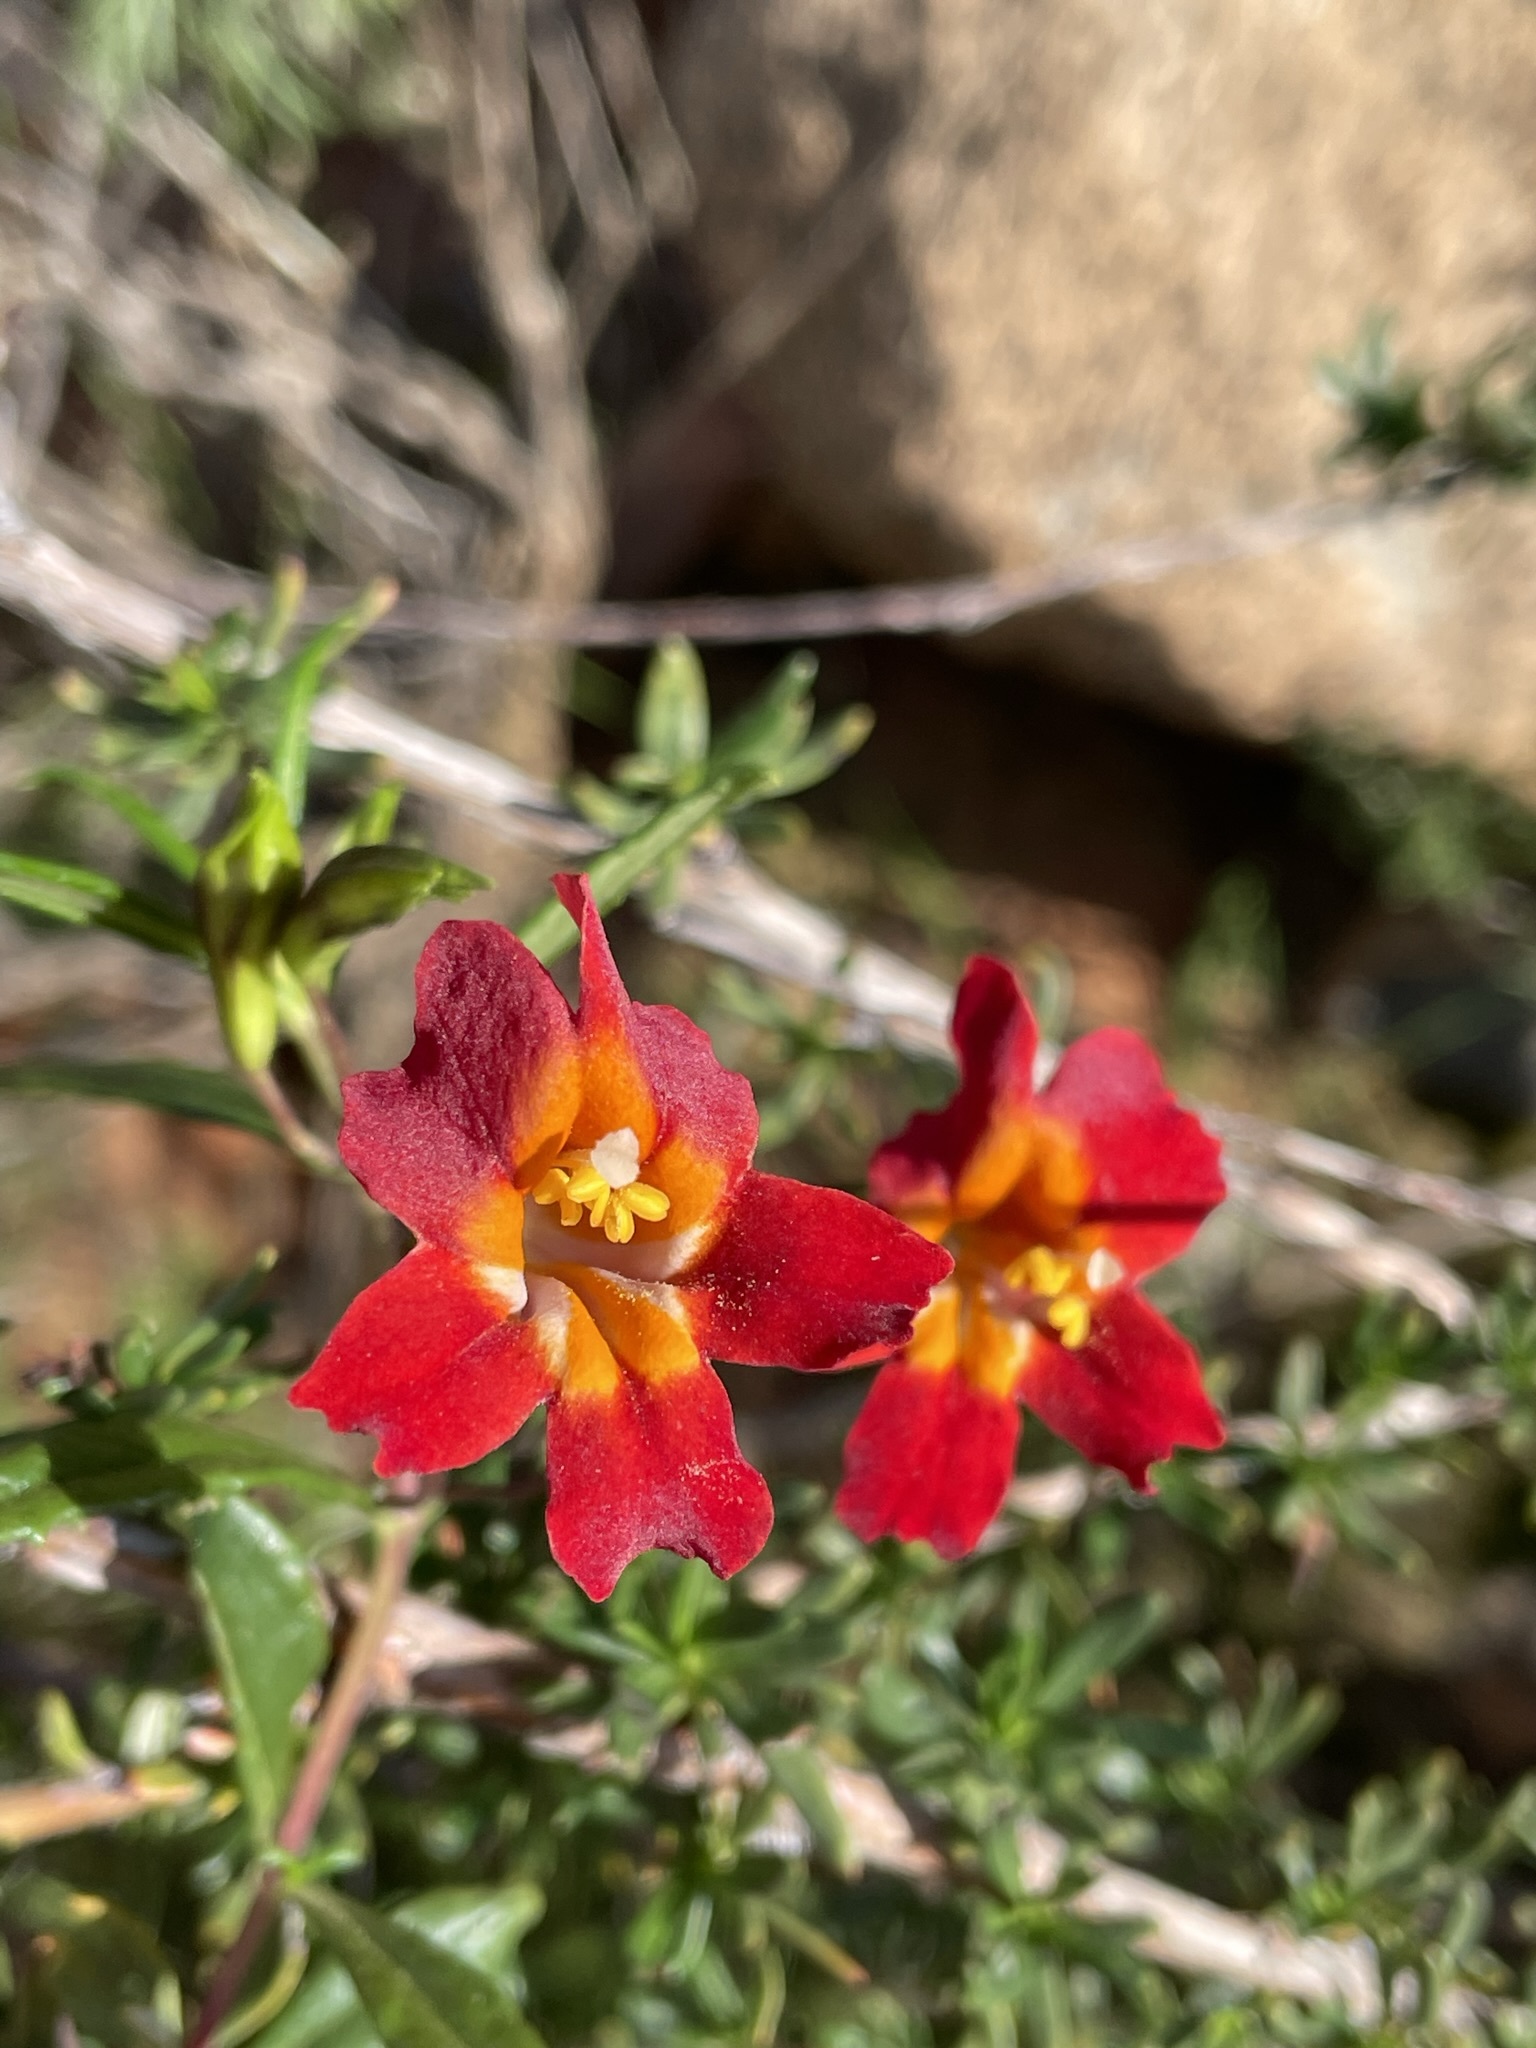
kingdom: Plantae
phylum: Tracheophyta
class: Magnoliopsida
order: Lamiales
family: Phrymaceae
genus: Diplacus
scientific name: Diplacus puniceus
